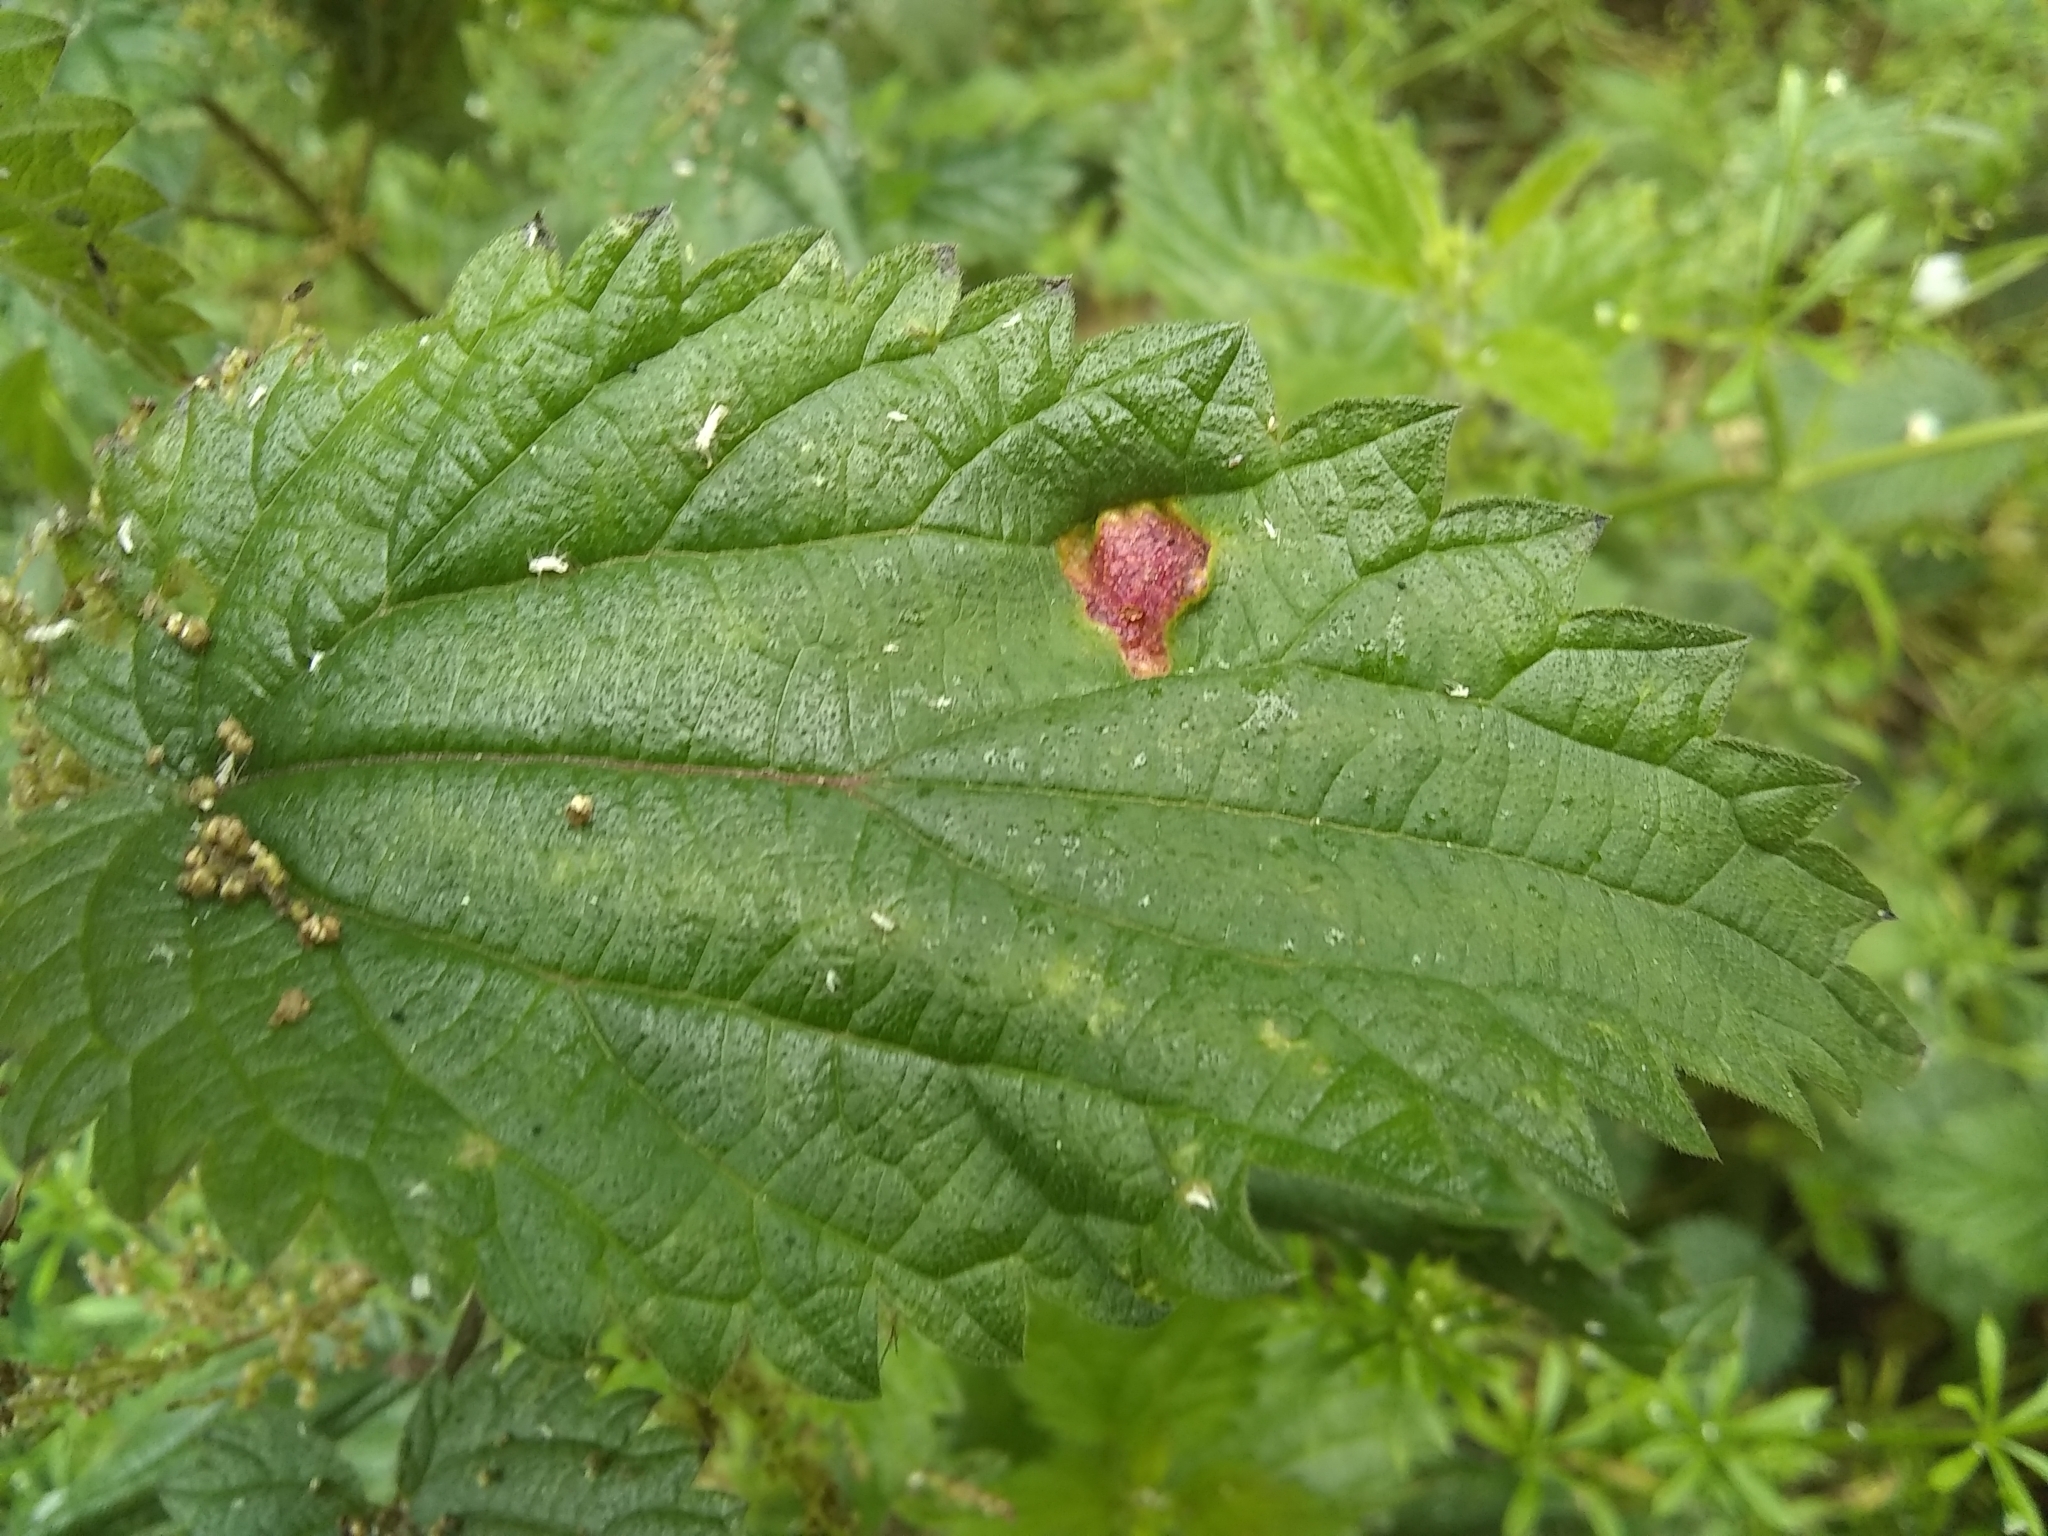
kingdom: Fungi
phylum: Basidiomycota
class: Pucciniomycetes
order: Pucciniales
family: Pucciniaceae
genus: Puccinia
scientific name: Puccinia urticata
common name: Nettle clustercup rust fungus
